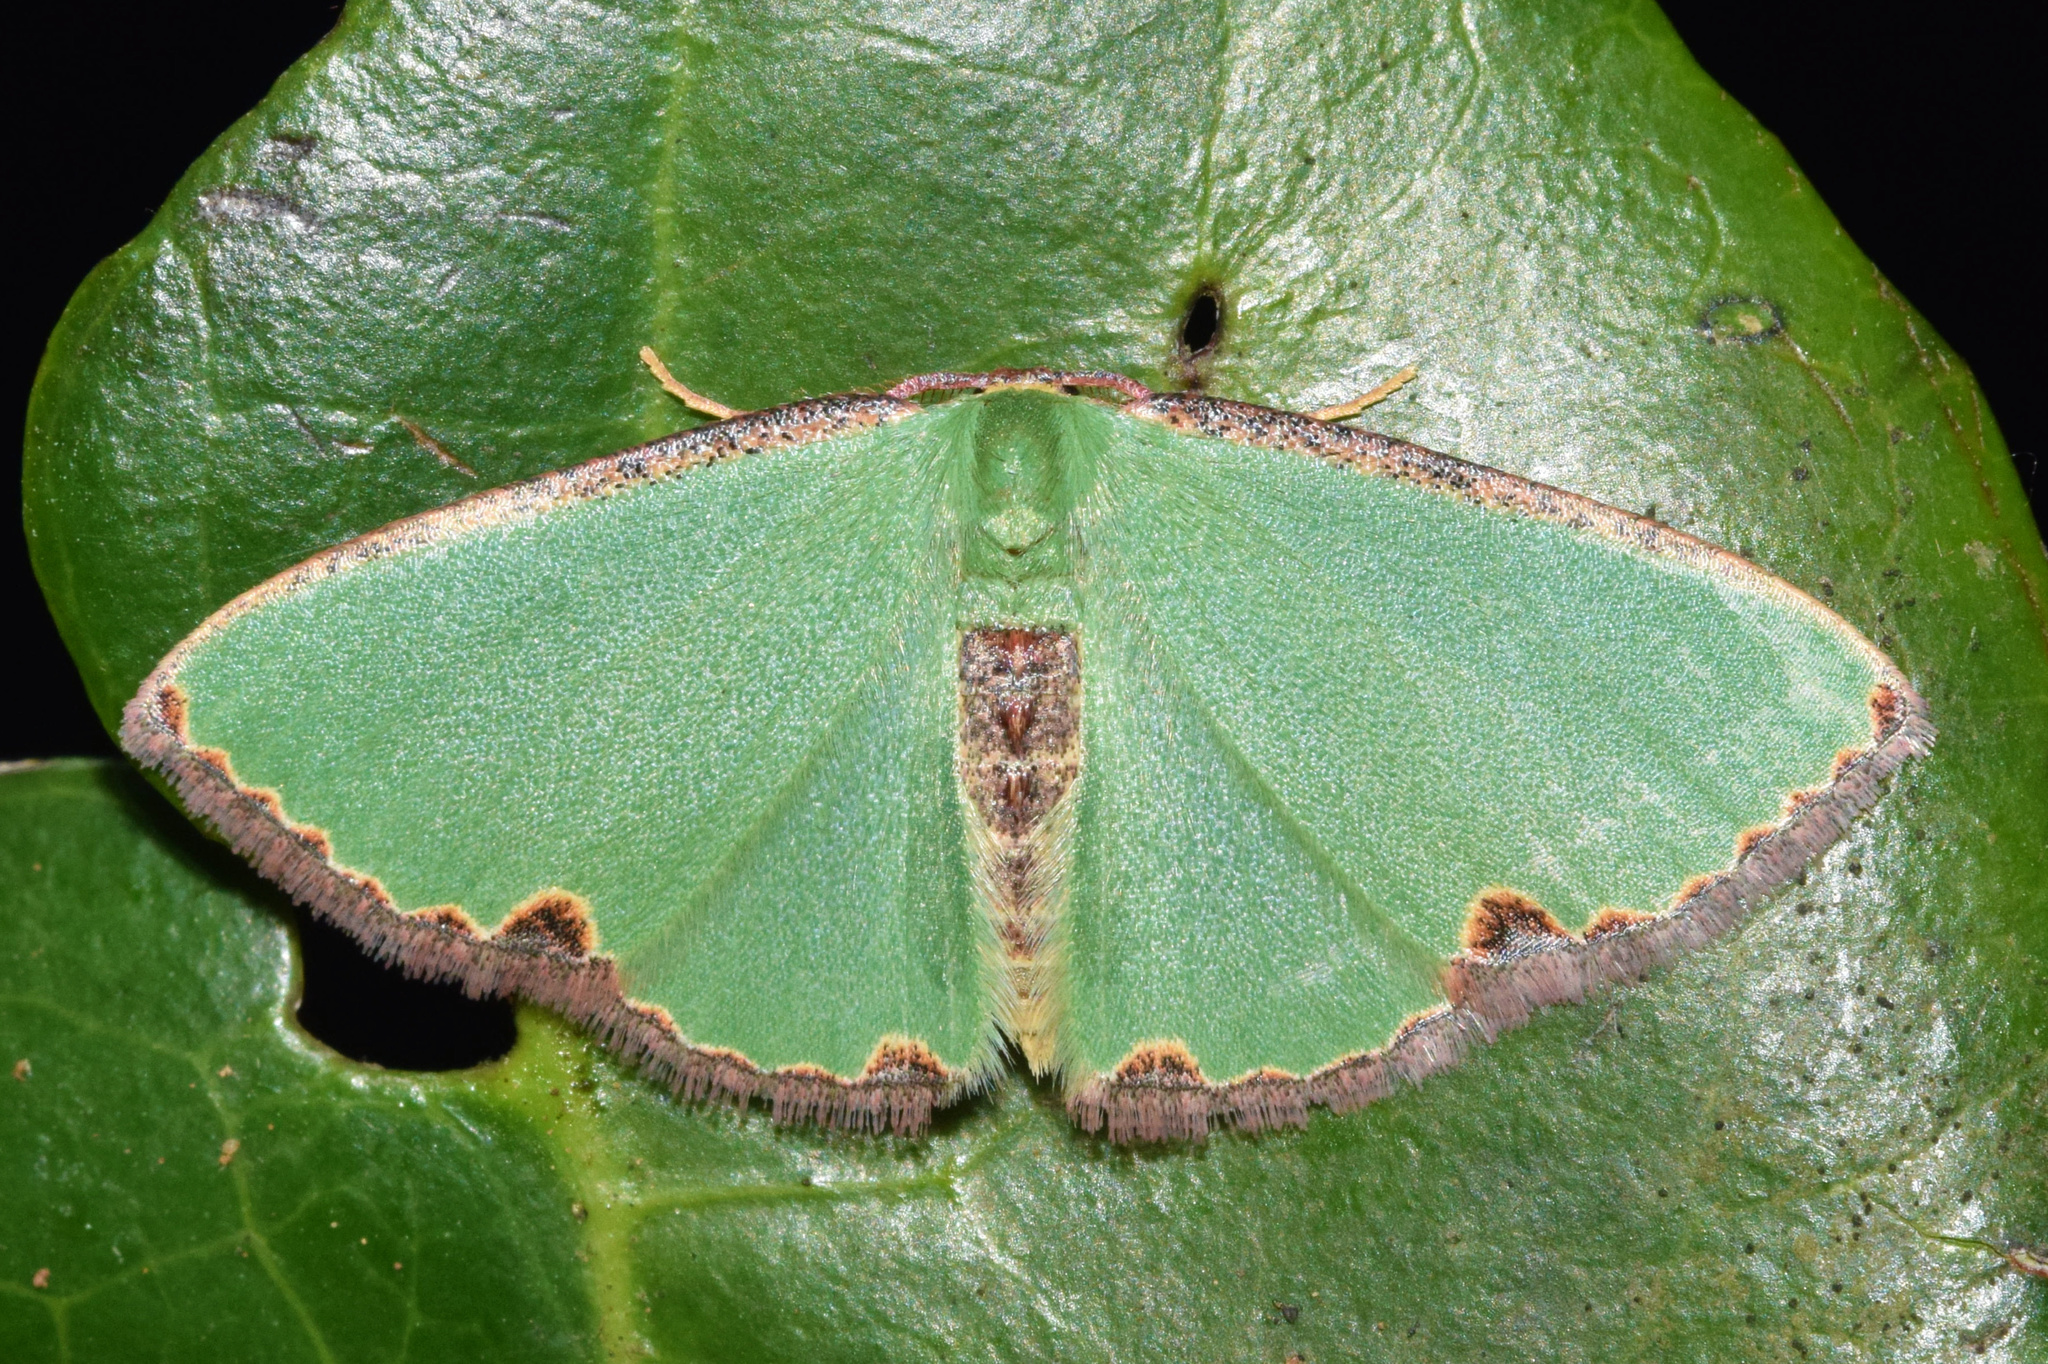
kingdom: Animalia
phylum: Arthropoda
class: Insecta
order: Lepidoptera
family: Geometridae
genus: Heterorachis
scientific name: Heterorachis devocata
